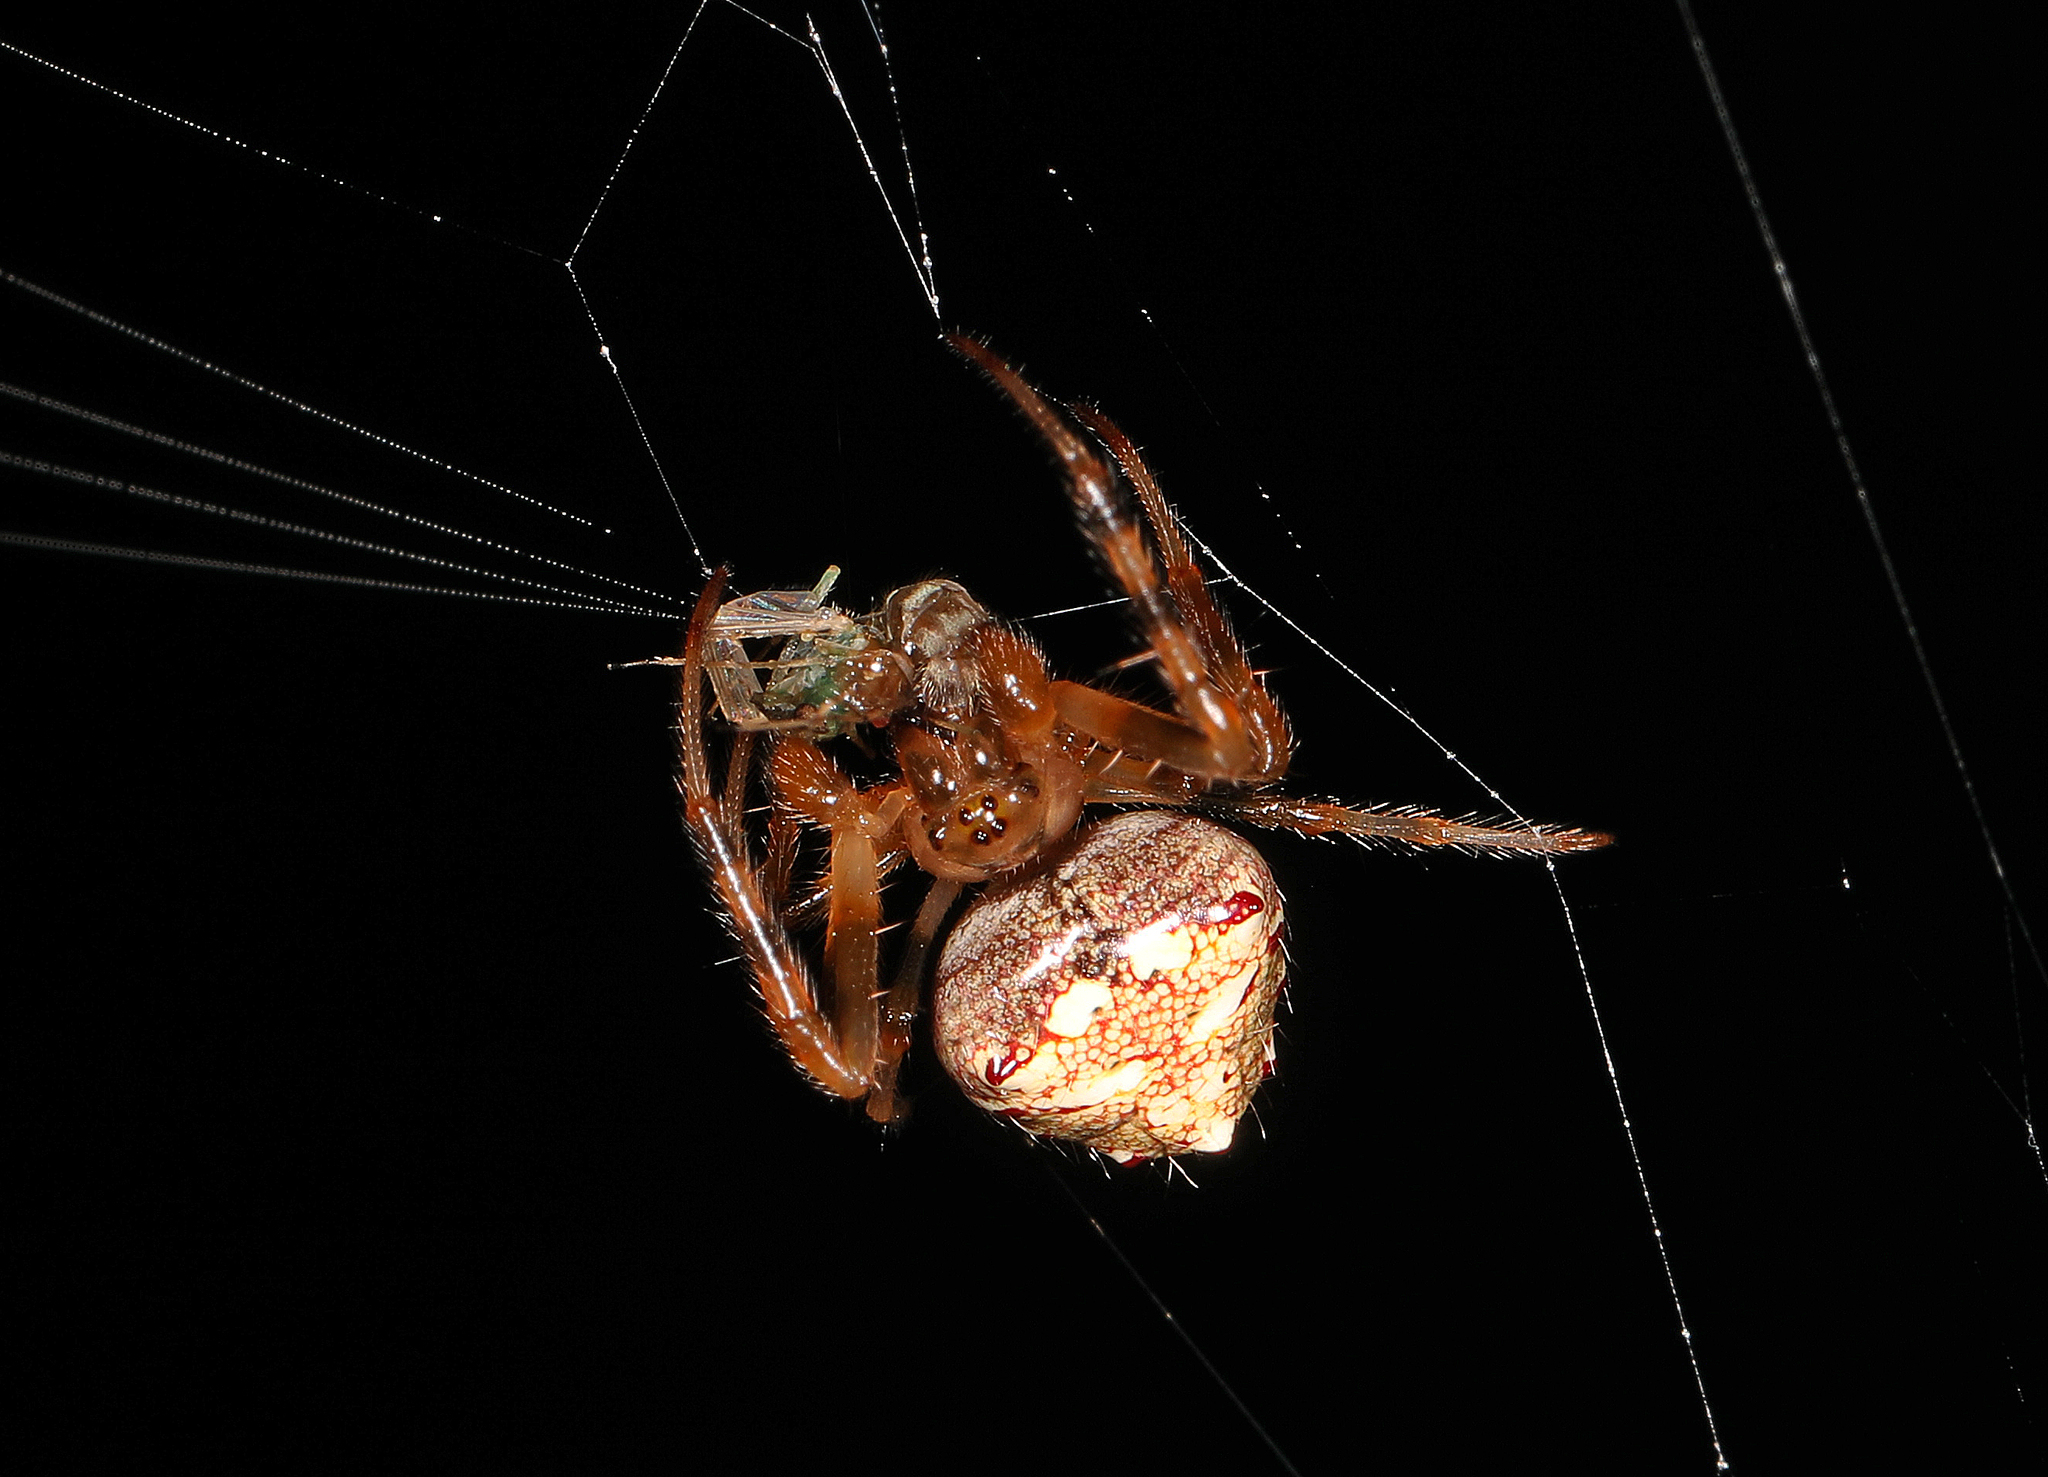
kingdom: Animalia
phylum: Arthropoda
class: Arachnida
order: Araneae
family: Araneidae
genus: Verrucosa
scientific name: Verrucosa arenata
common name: Orb weavers
